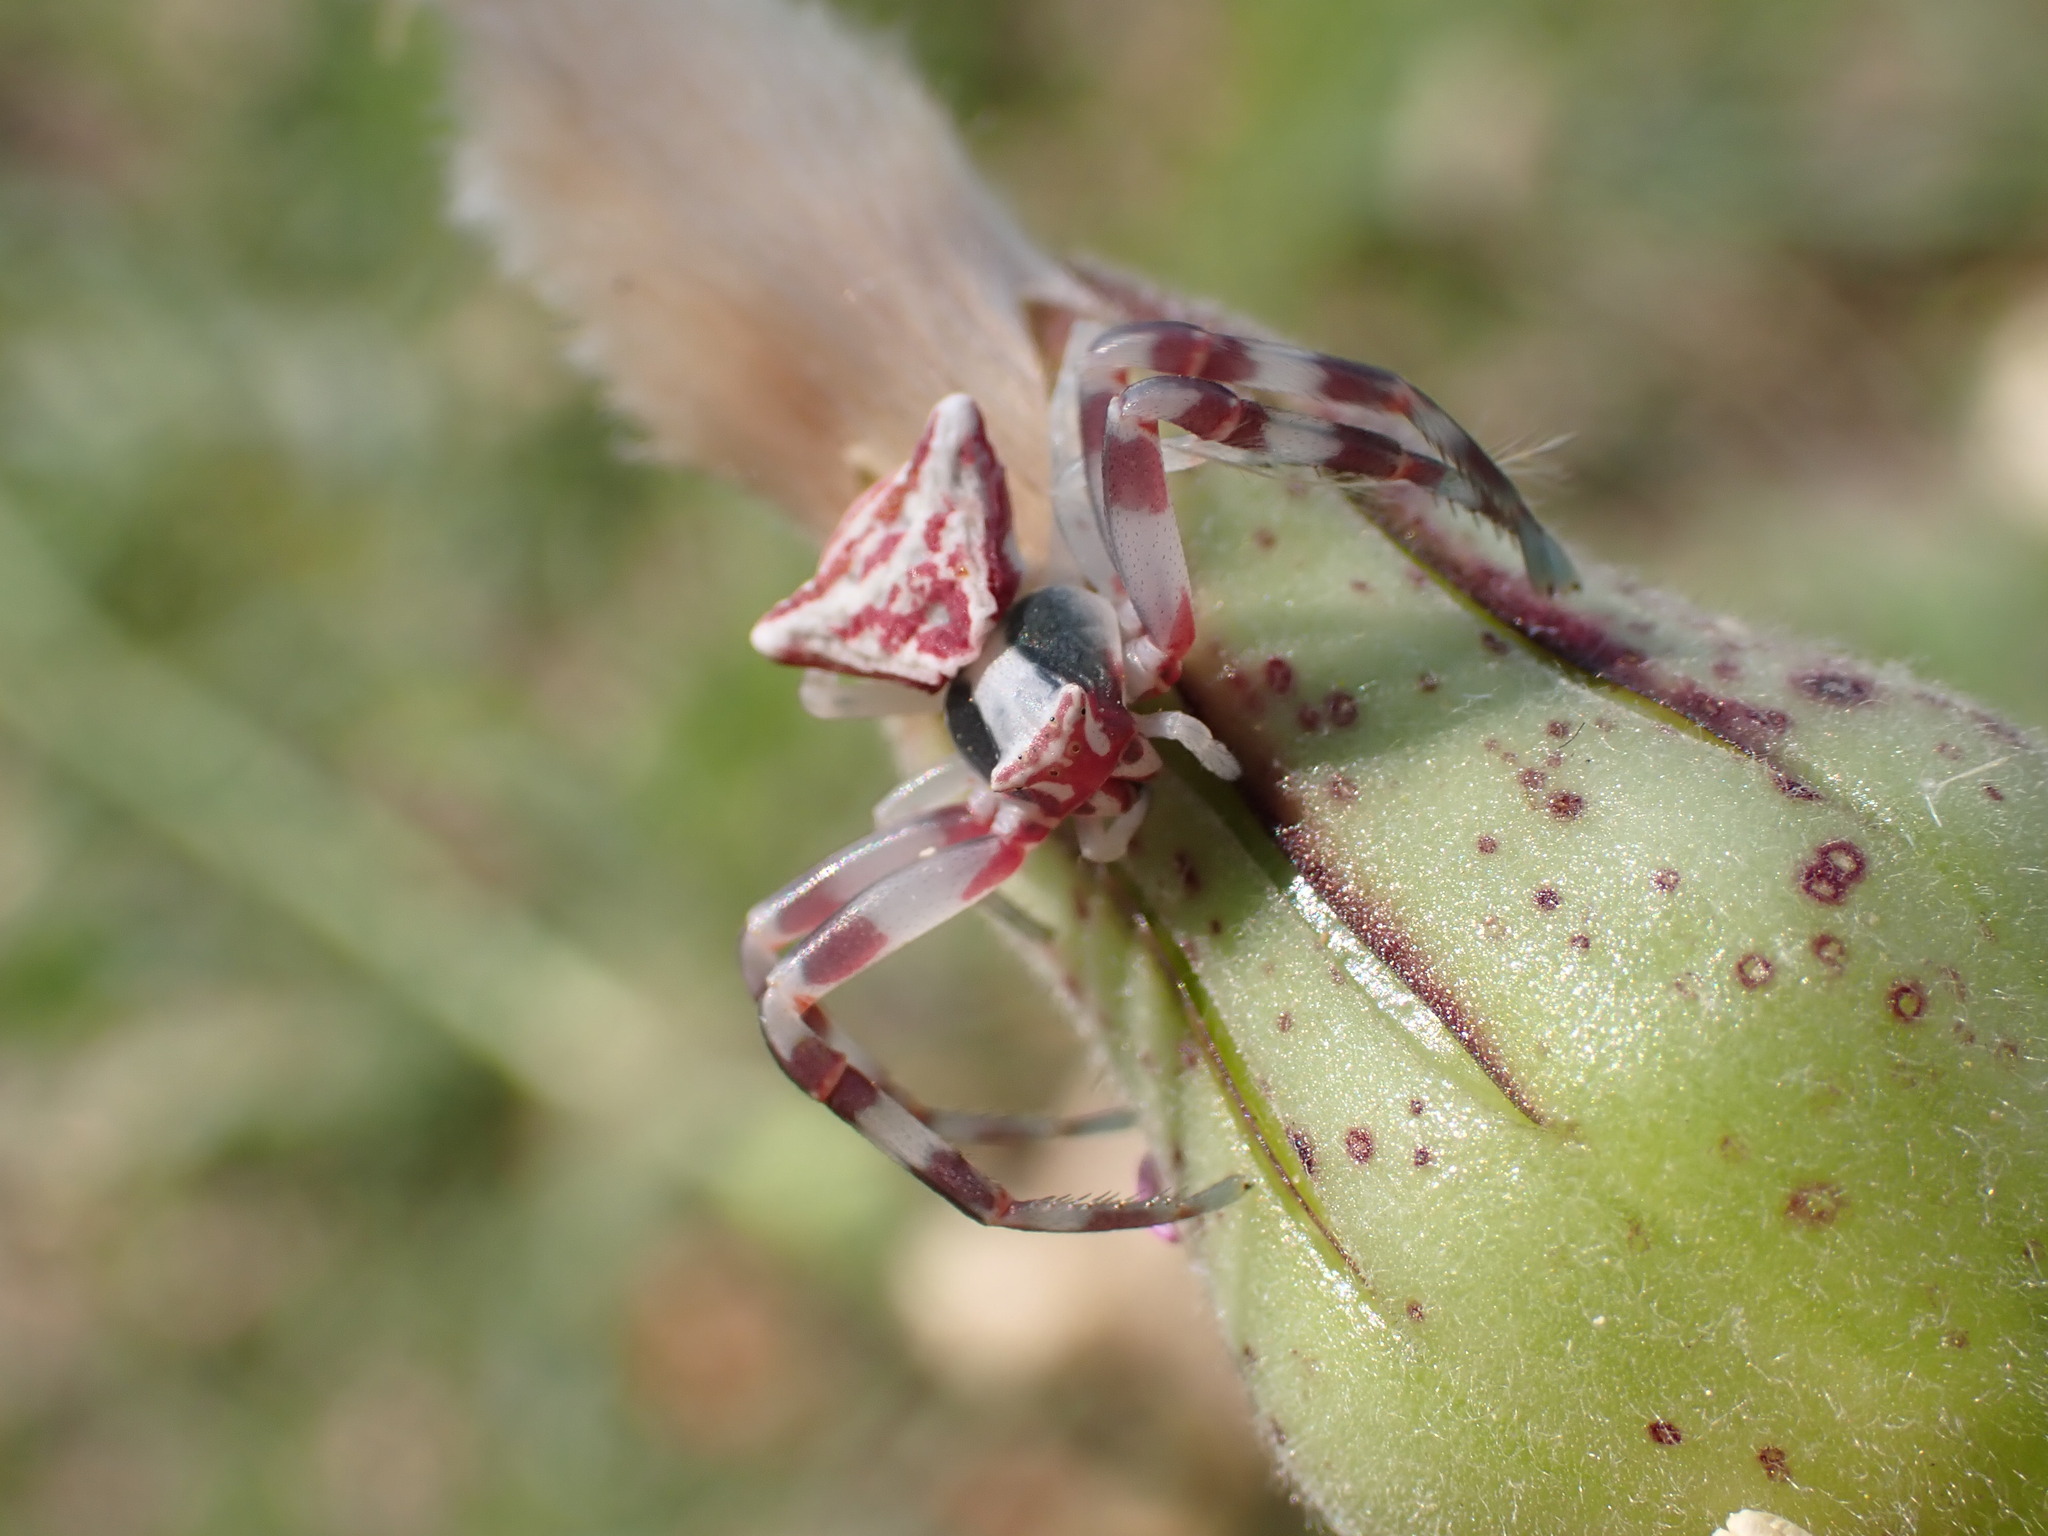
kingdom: Animalia
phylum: Arthropoda
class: Arachnida
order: Araneae
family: Thomisidae
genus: Thomisus
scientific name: Thomisus onustus
